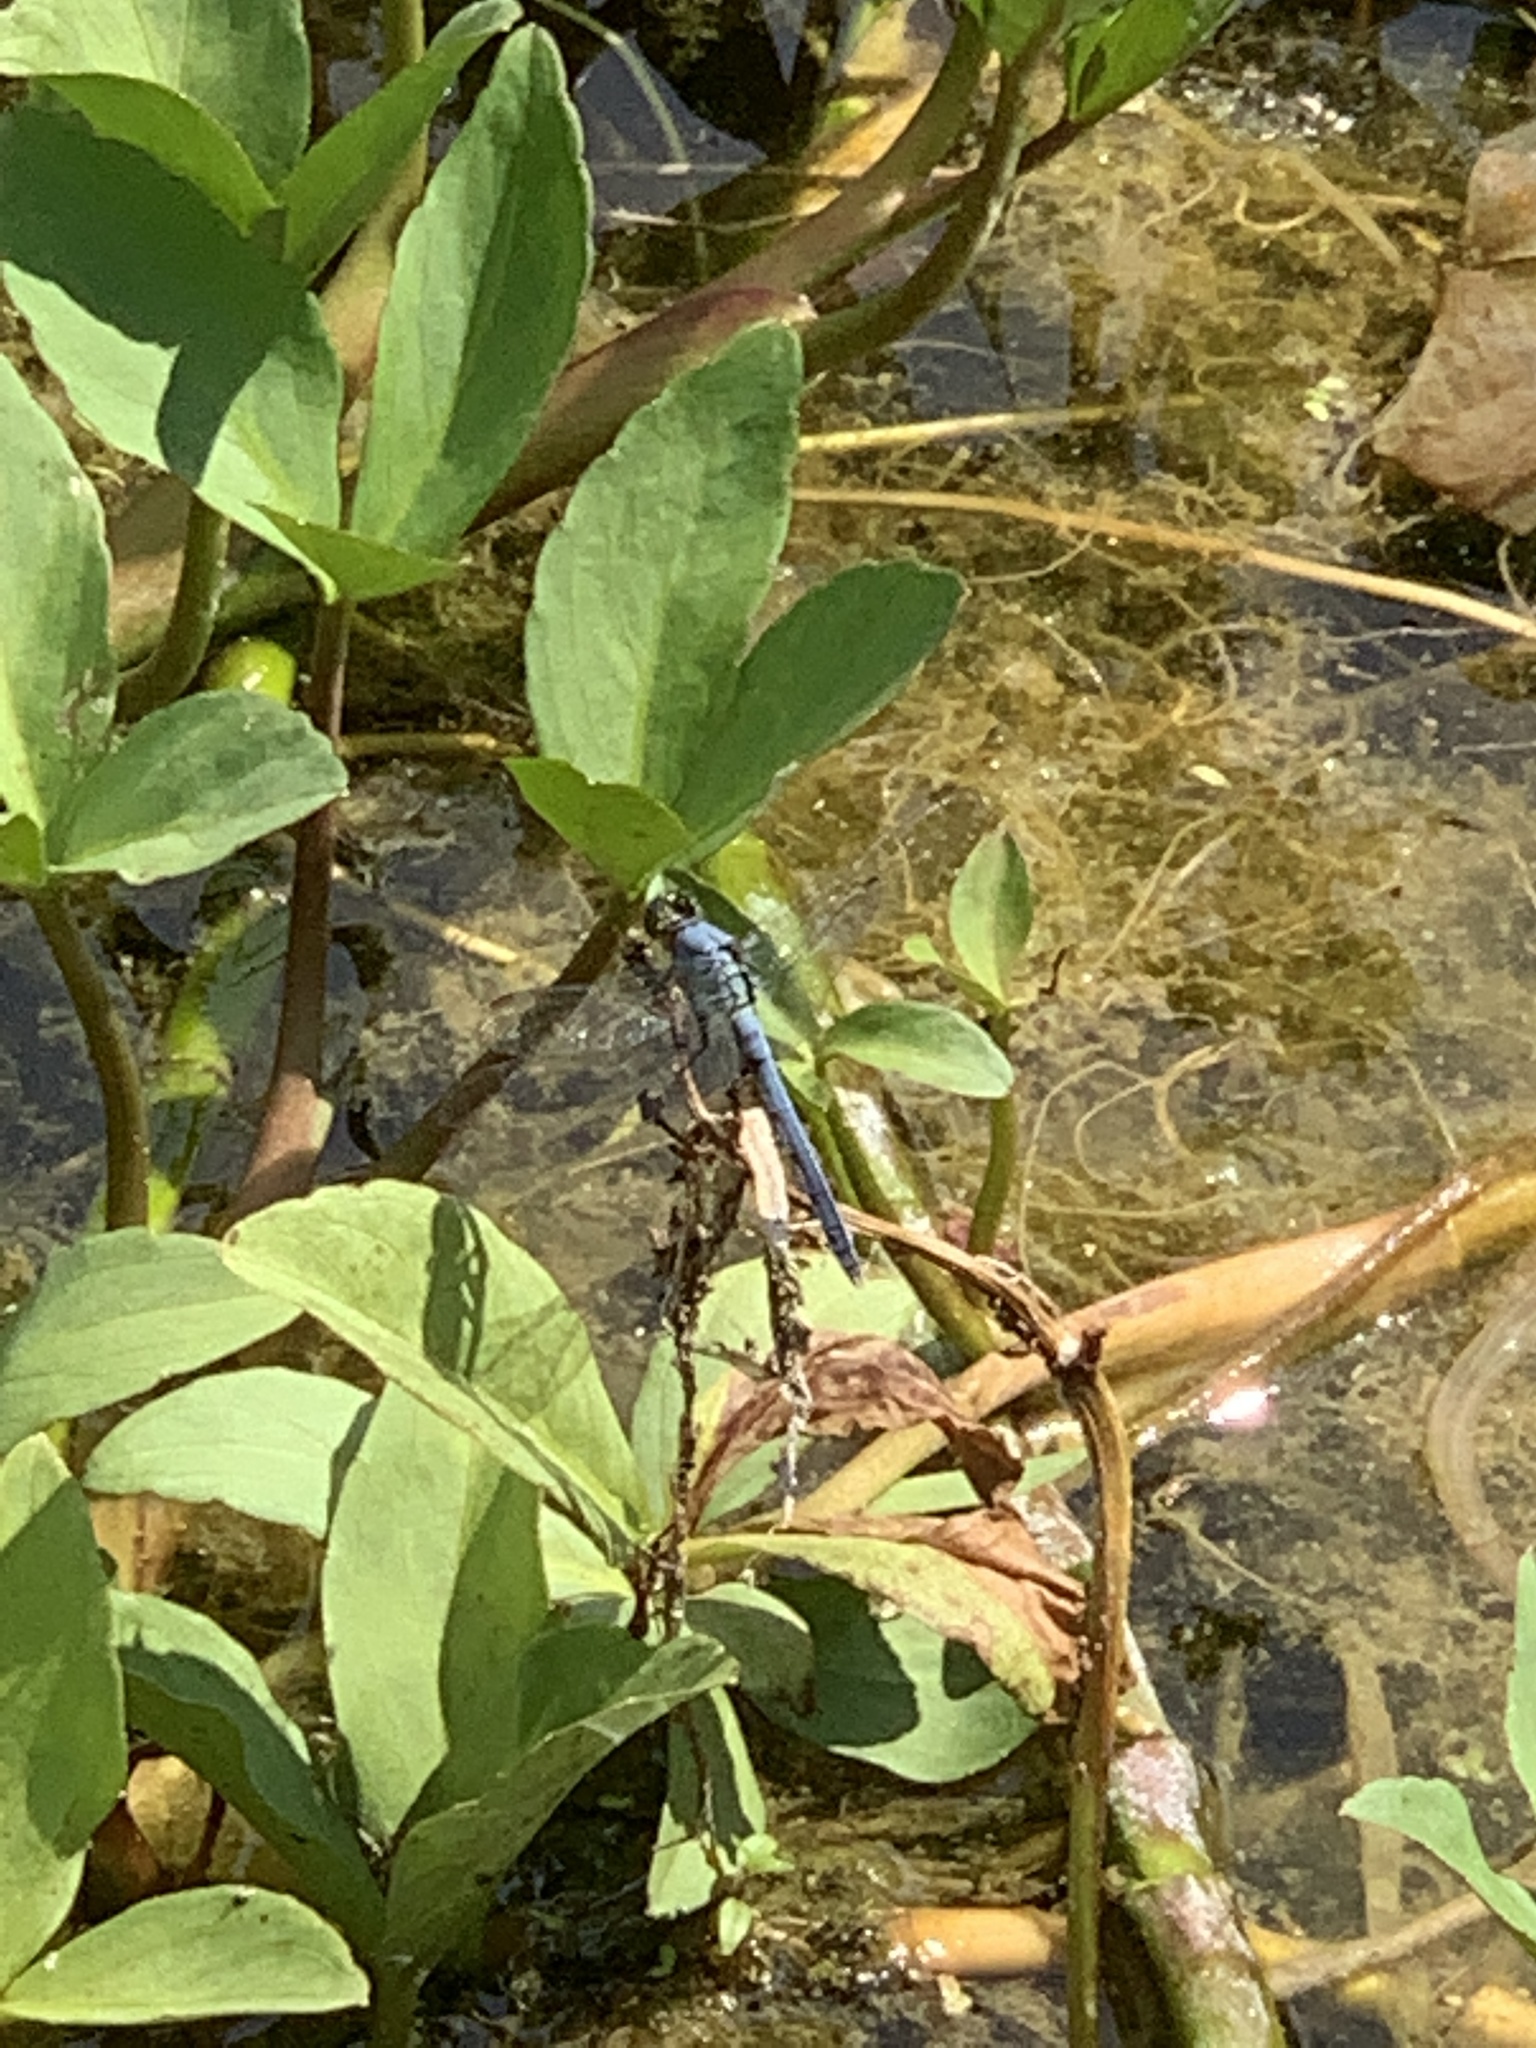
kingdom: Animalia
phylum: Arthropoda
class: Insecta
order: Odonata
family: Libellulidae
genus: Erythemis
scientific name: Erythemis simplicicollis
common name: Eastern pondhawk
